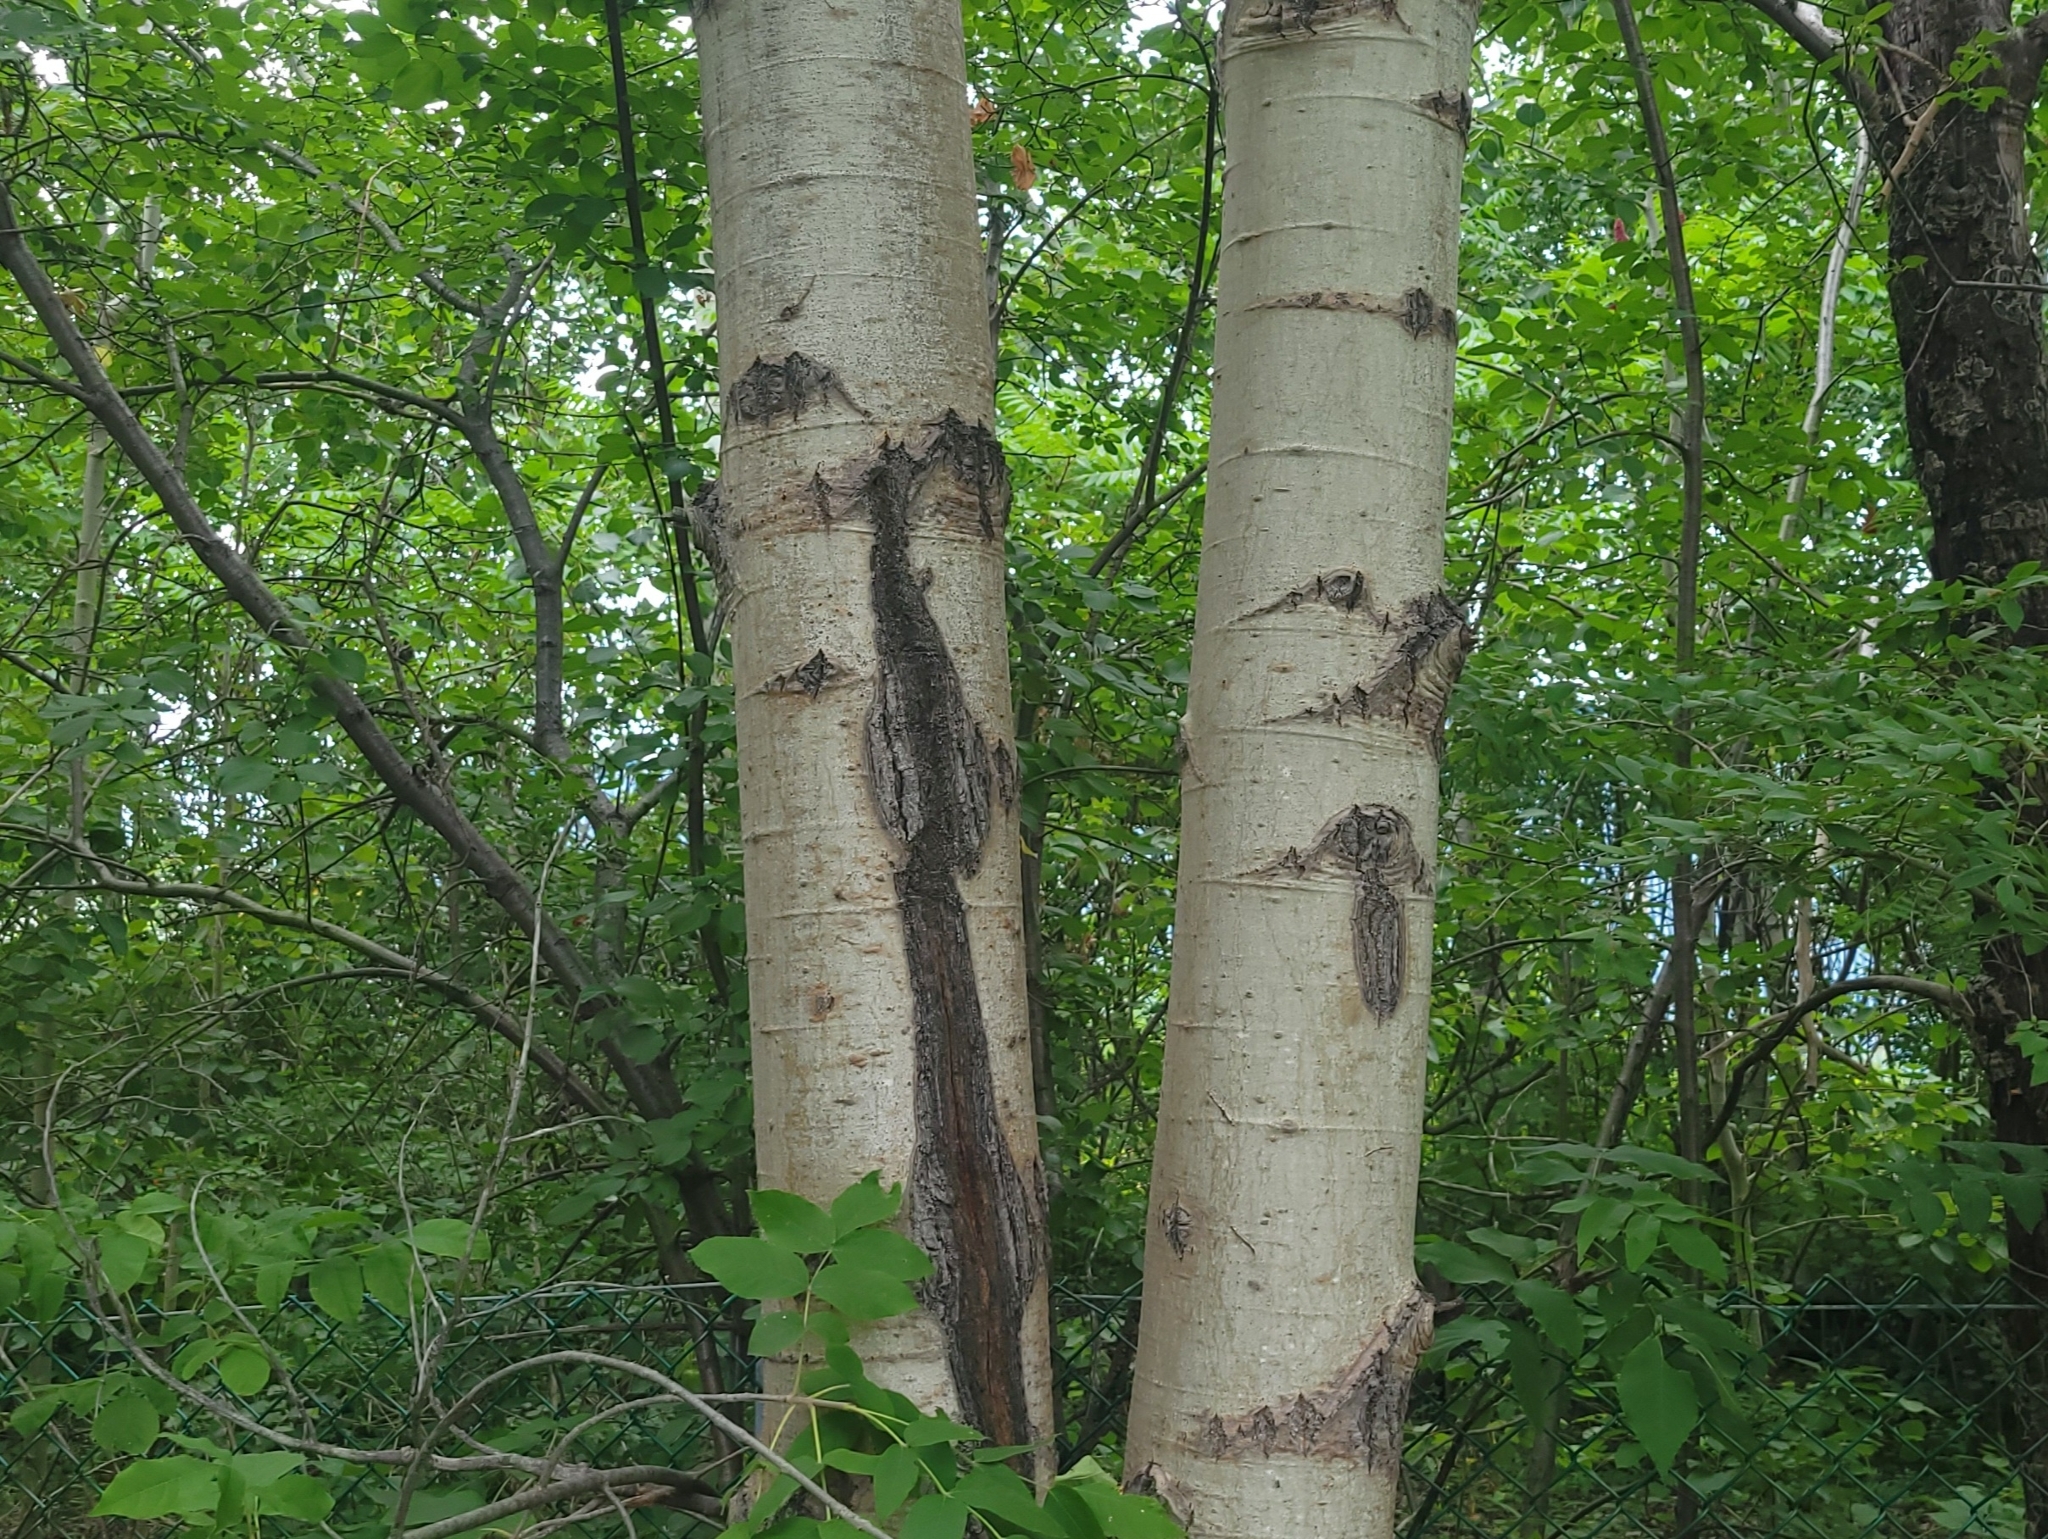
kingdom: Plantae
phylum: Tracheophyta
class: Magnoliopsida
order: Malpighiales
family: Salicaceae
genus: Populus
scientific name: Populus tremuloides
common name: Quaking aspen
